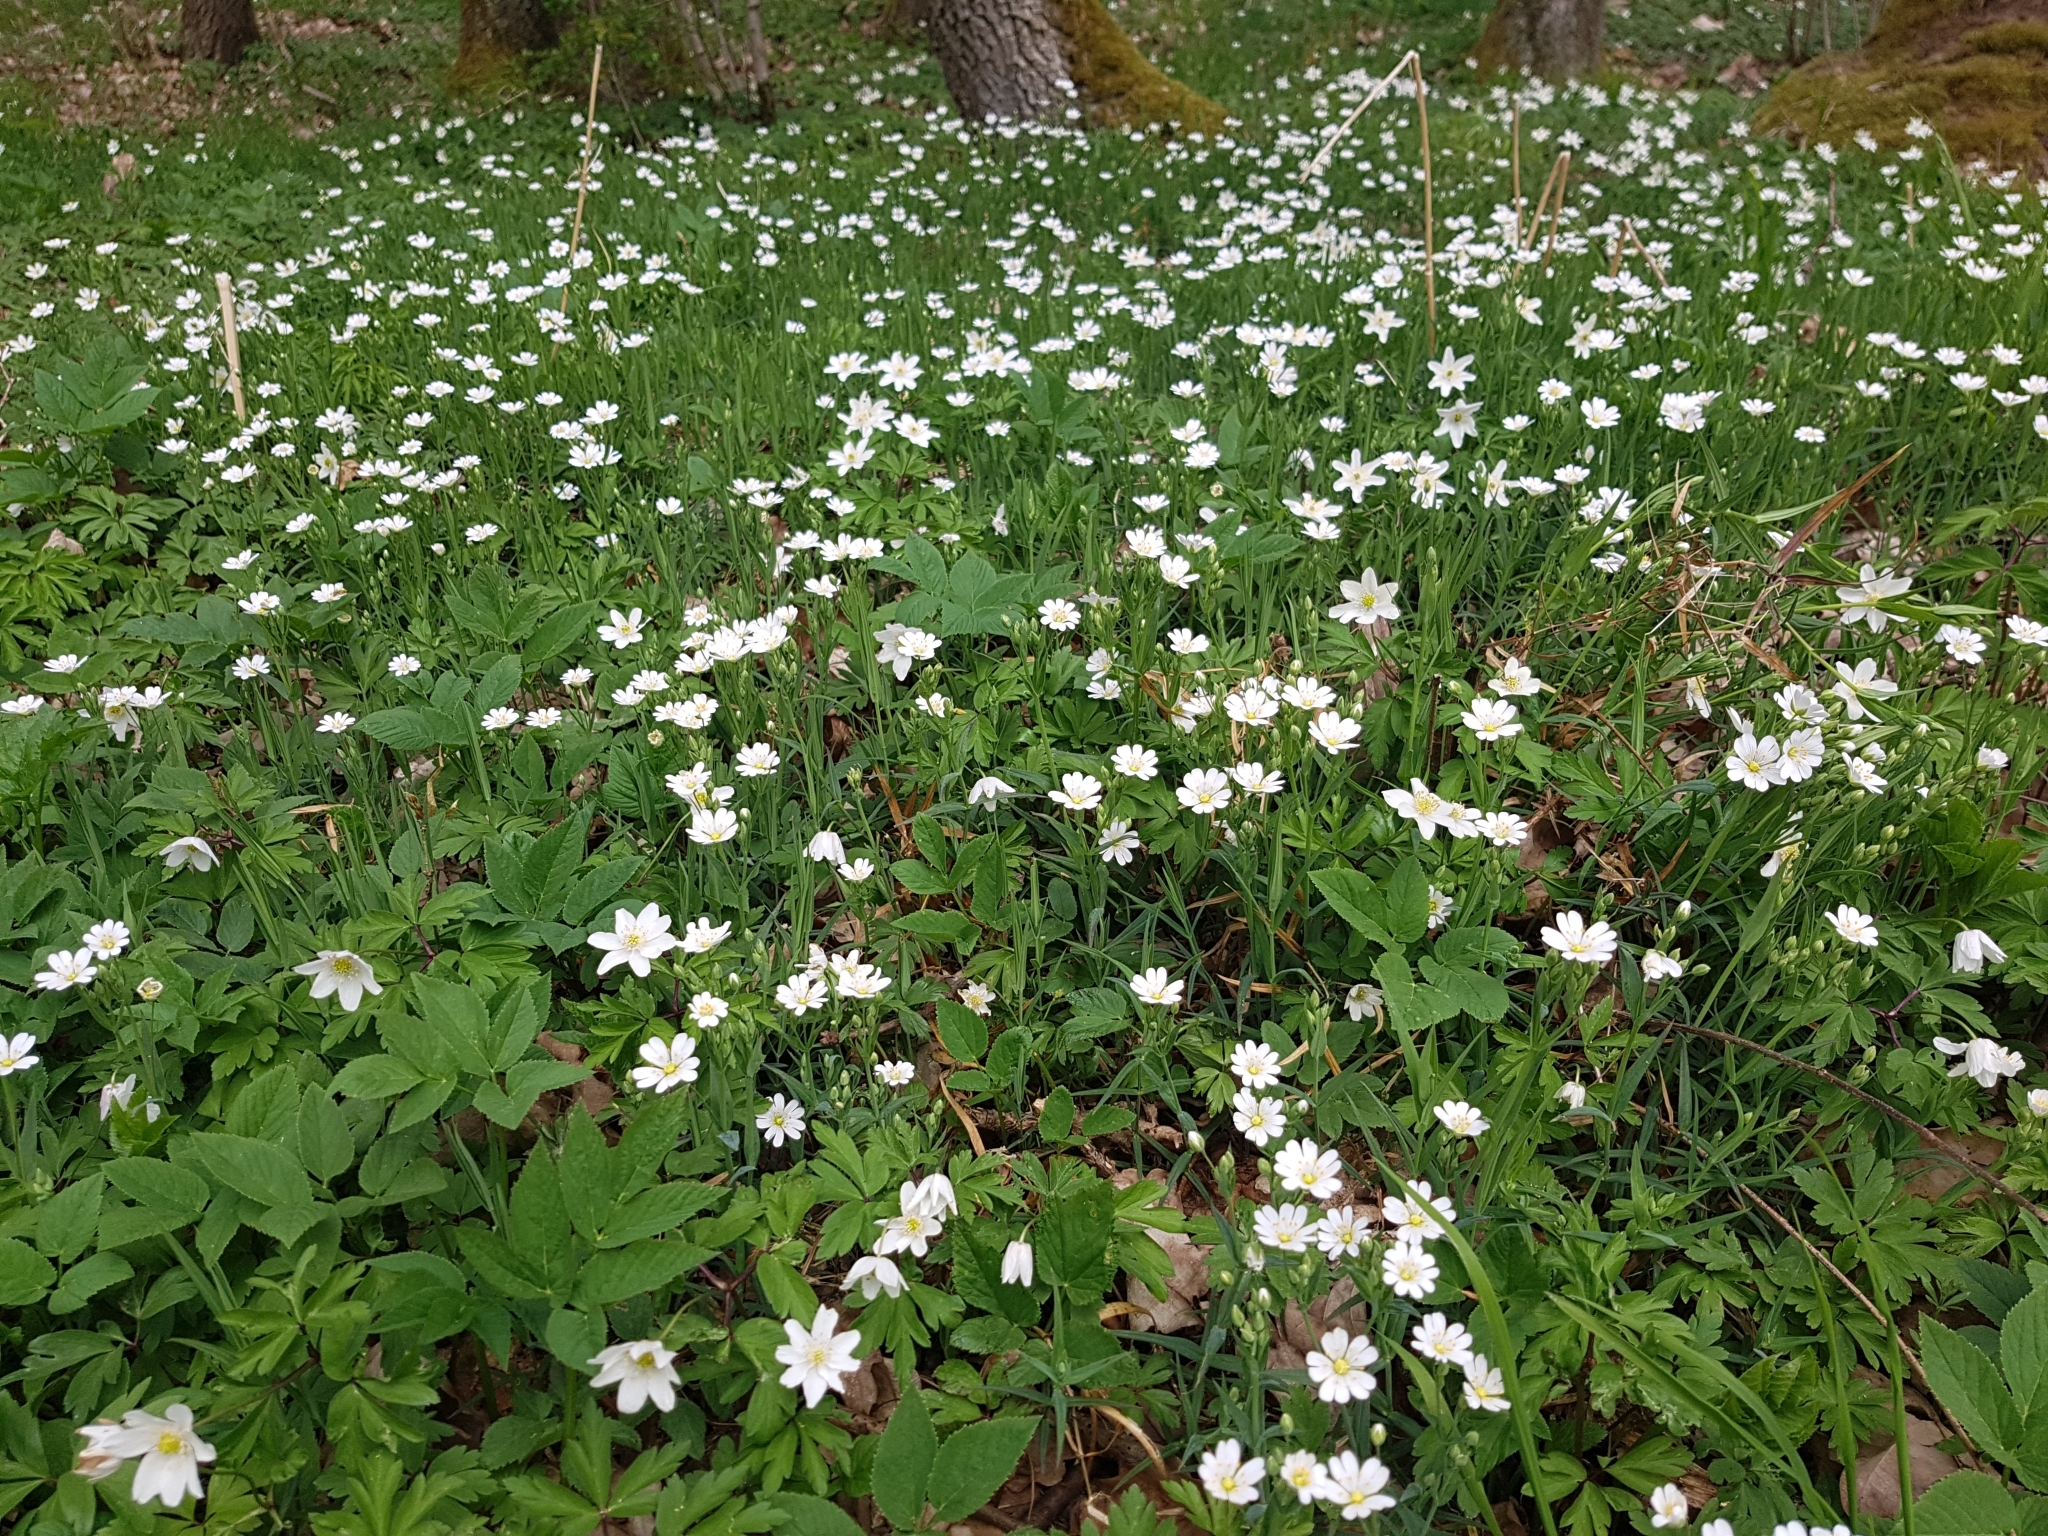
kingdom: Plantae
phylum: Tracheophyta
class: Magnoliopsida
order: Ranunculales
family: Ranunculaceae
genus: Anemone
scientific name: Anemone nemorosa
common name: Wood anemone
